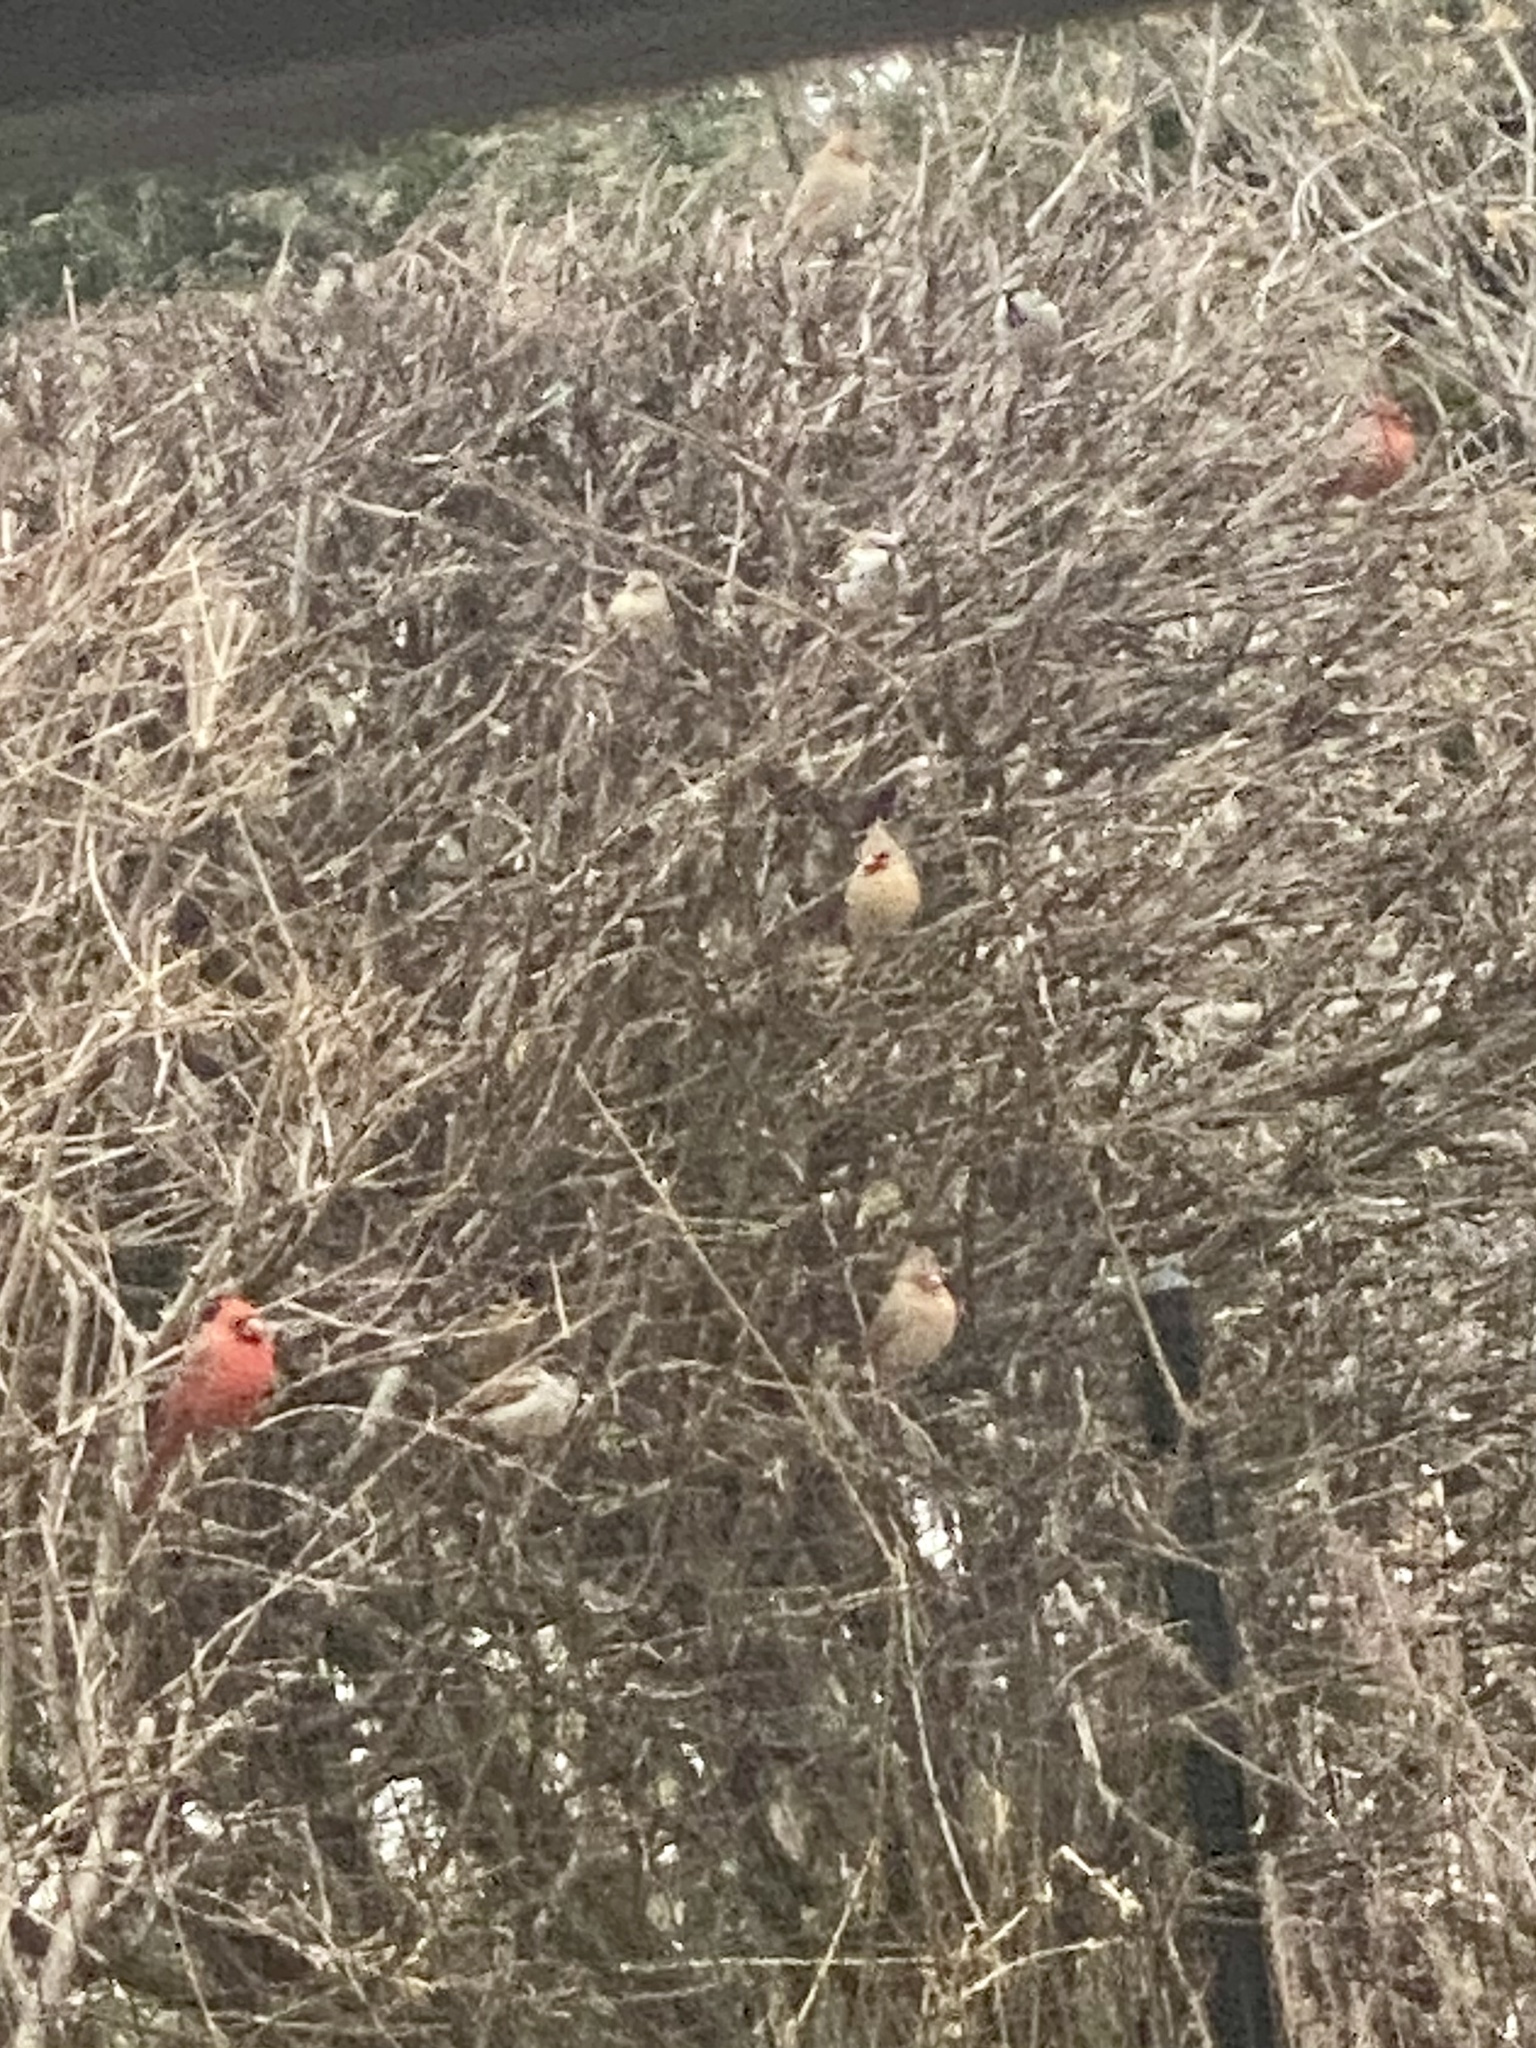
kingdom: Animalia
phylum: Chordata
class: Aves
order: Passeriformes
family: Cardinalidae
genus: Cardinalis
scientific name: Cardinalis cardinalis
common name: Northern cardinal
